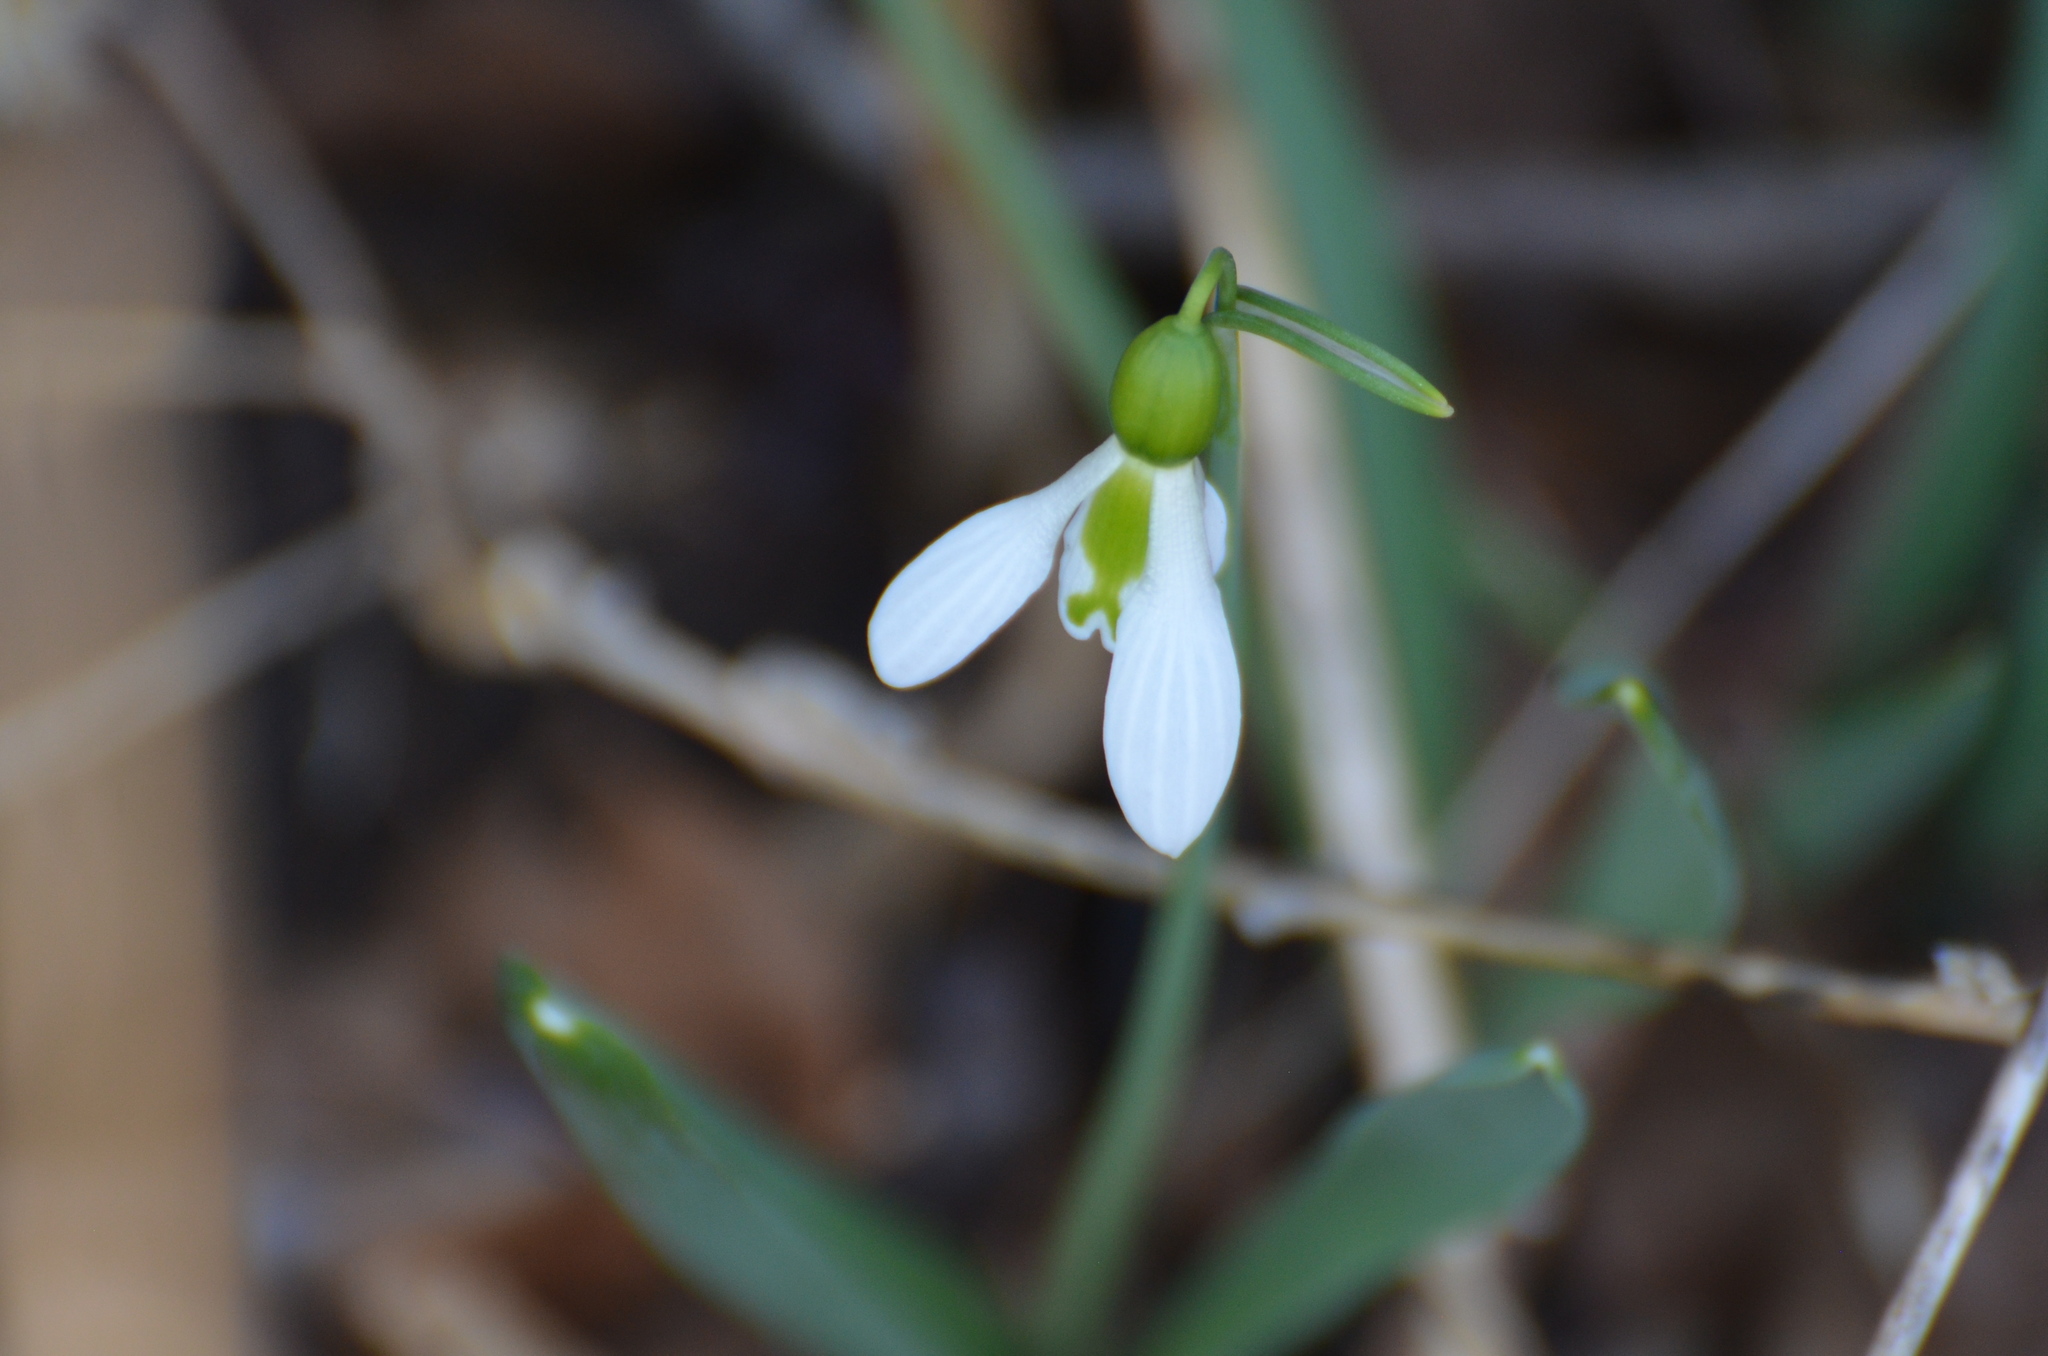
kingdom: Plantae
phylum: Tracheophyta
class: Liliopsida
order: Asparagales
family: Amaryllidaceae
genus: Galanthus
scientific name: Galanthus elwesii
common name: Greater snowdrop
